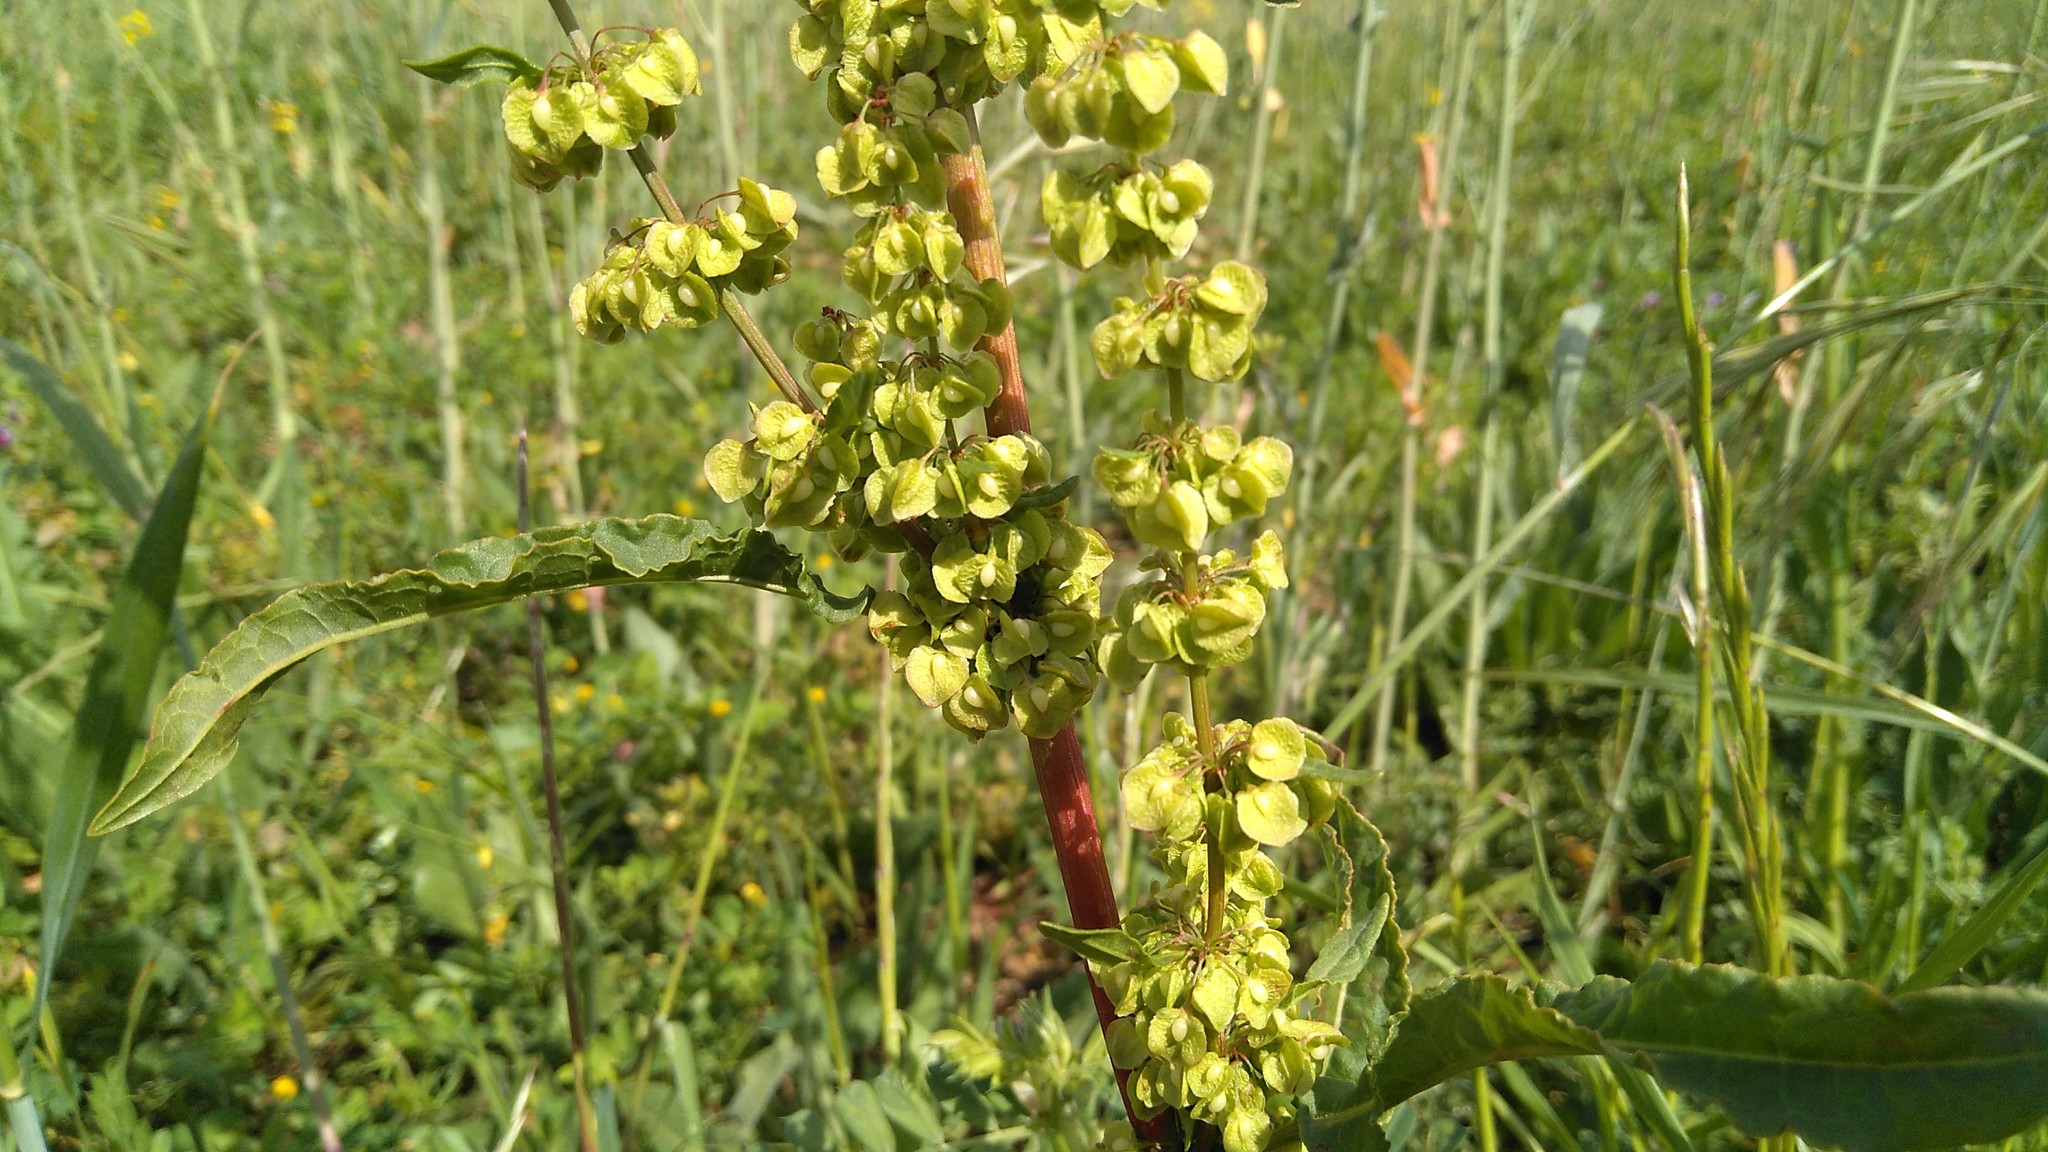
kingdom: Plantae
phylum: Tracheophyta
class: Magnoliopsida
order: Caryophyllales
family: Polygonaceae
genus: Rumex
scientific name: Rumex crispus
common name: Curled dock
